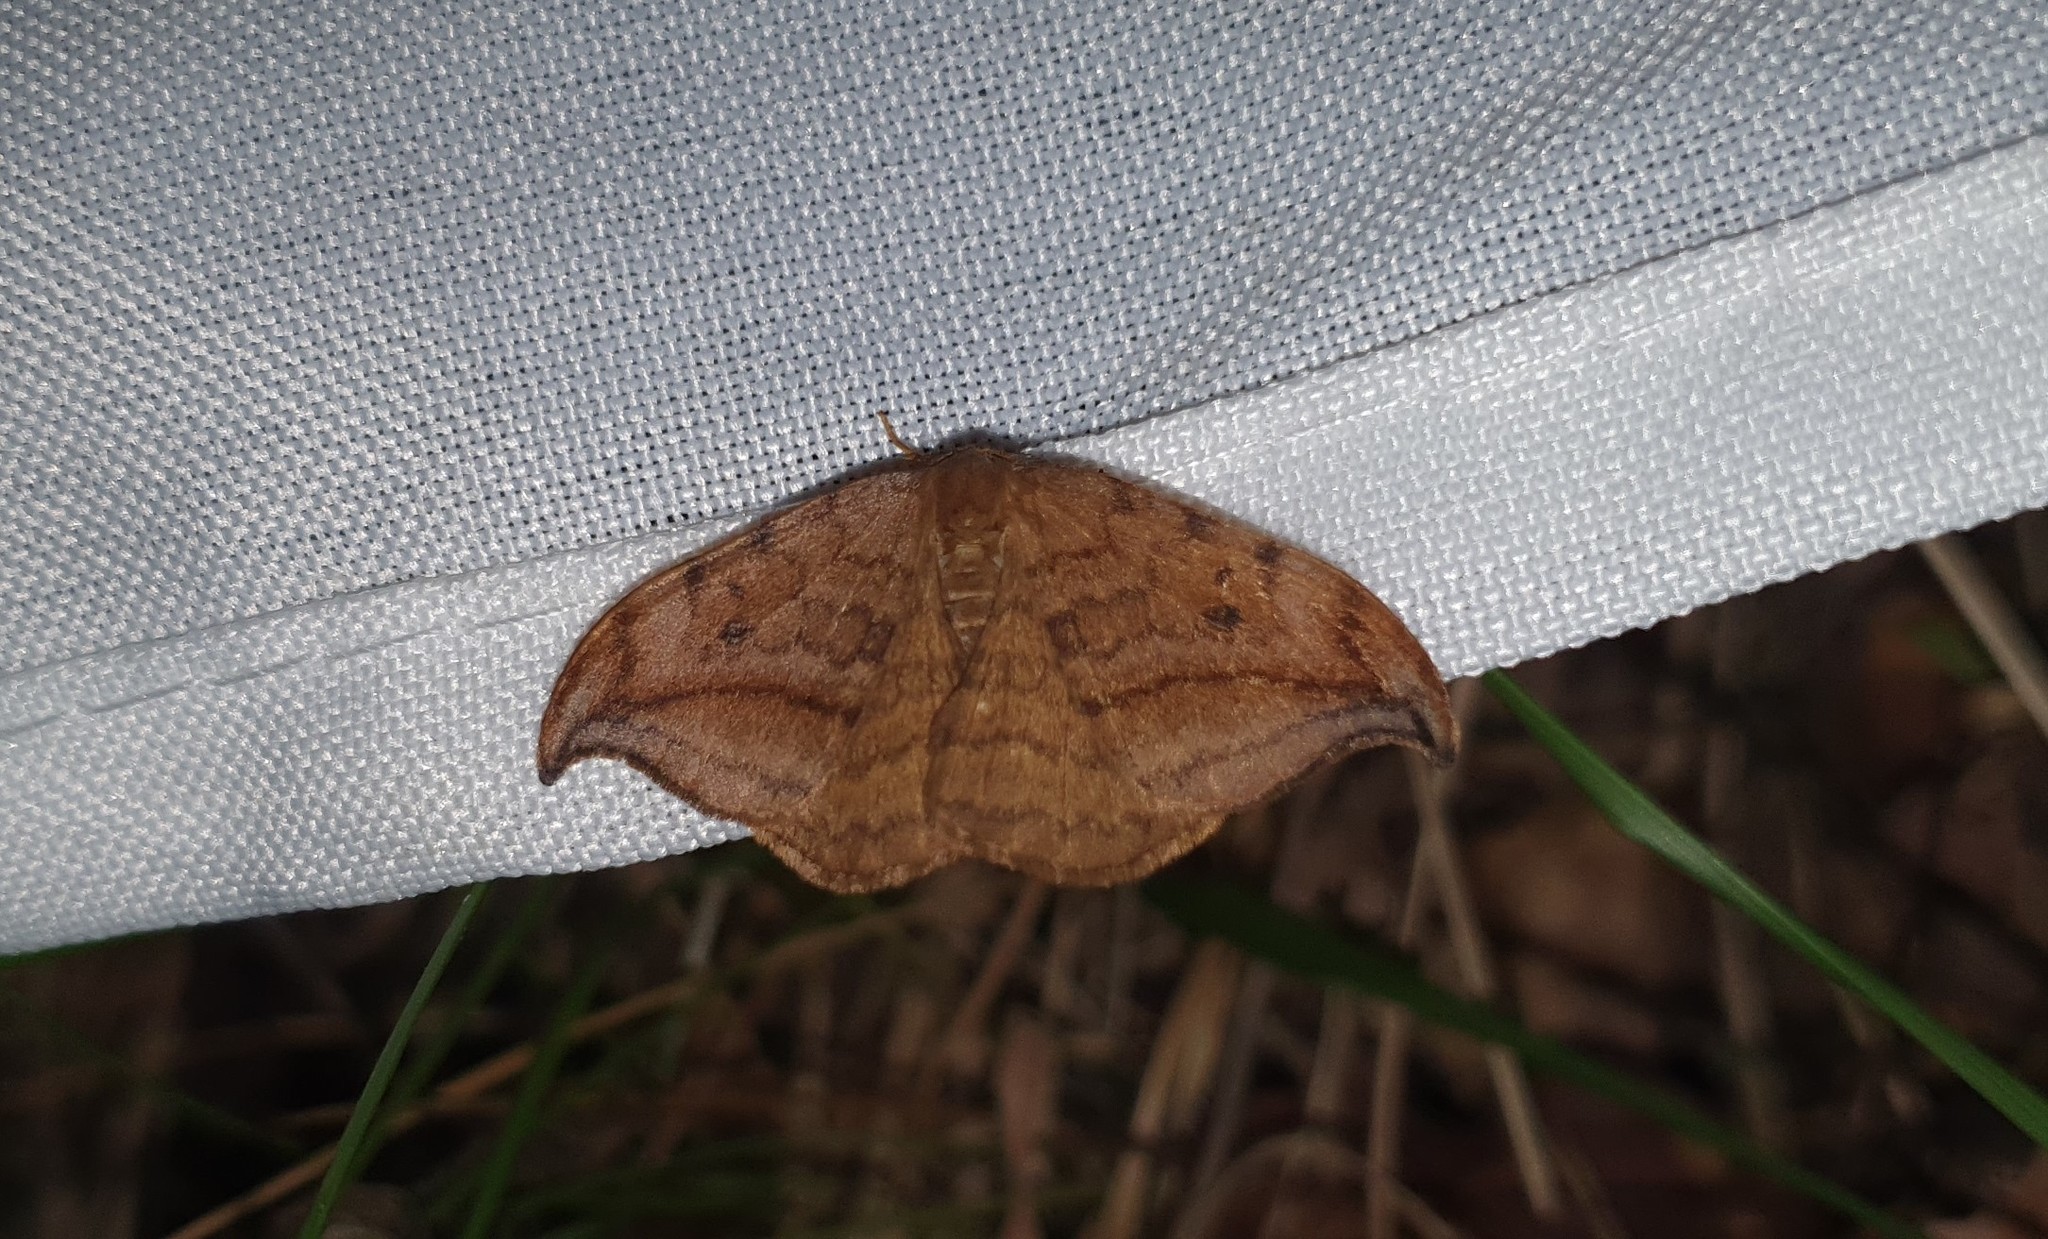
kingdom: Animalia
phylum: Arthropoda
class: Insecta
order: Lepidoptera
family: Drepanidae
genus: Drepana
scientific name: Drepana curvatula
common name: Dusky hook-tip
